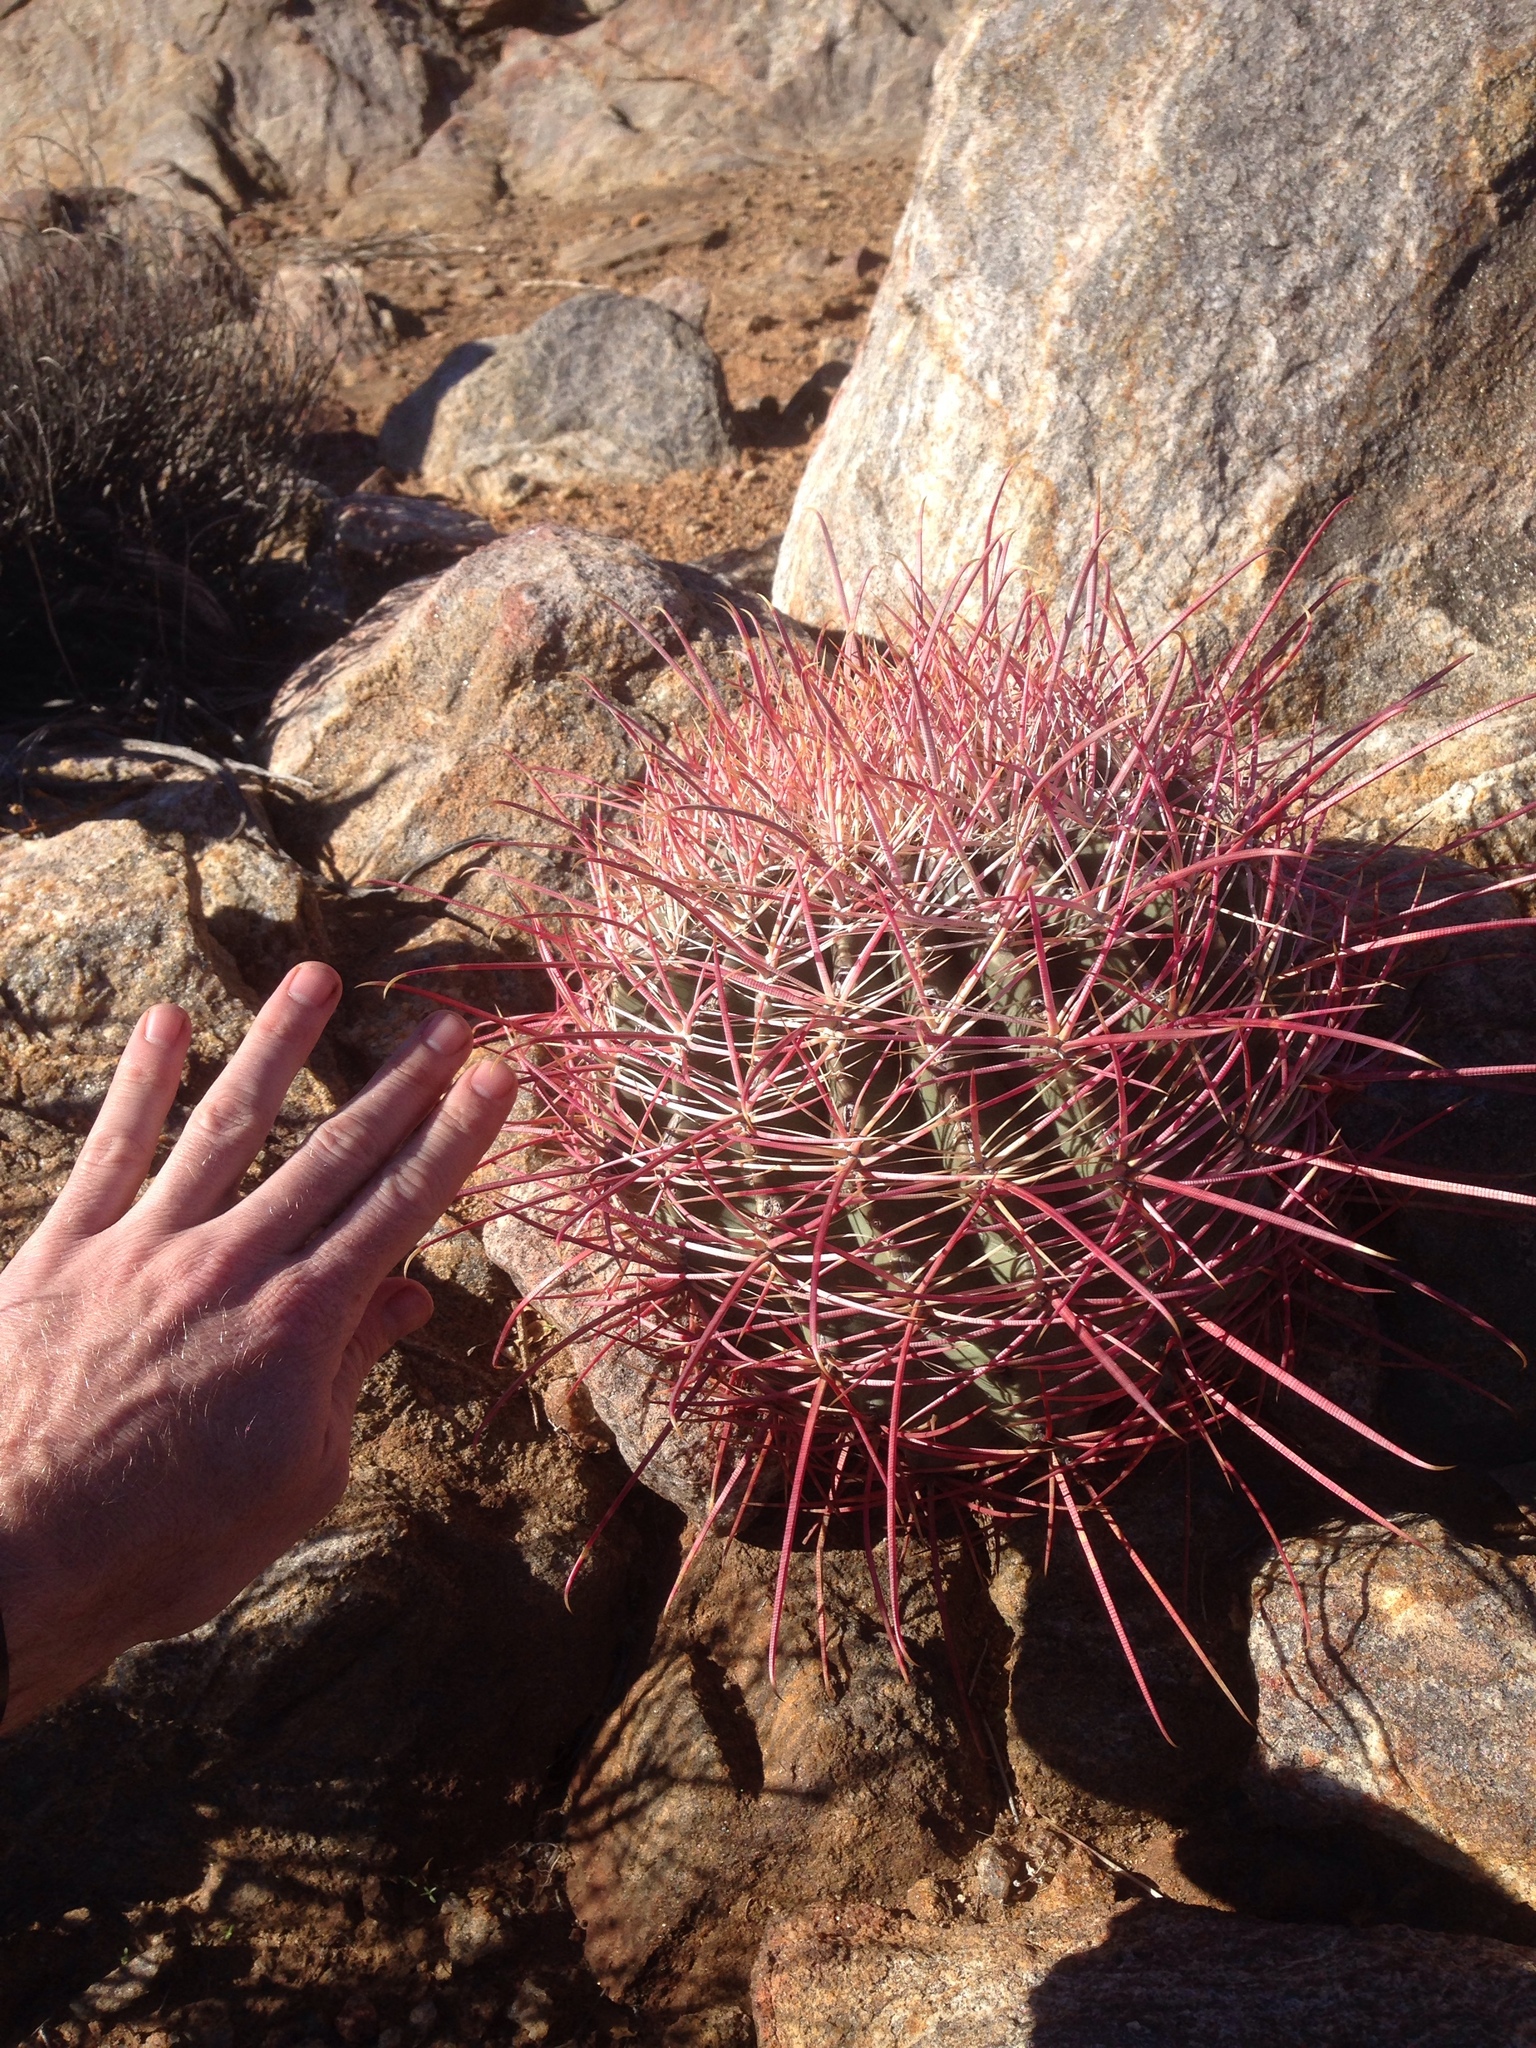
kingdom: Plantae
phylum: Tracheophyta
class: Magnoliopsida
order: Caryophyllales
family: Cactaceae
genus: Ferocactus
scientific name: Ferocactus cylindraceus
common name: California barrel cactus
